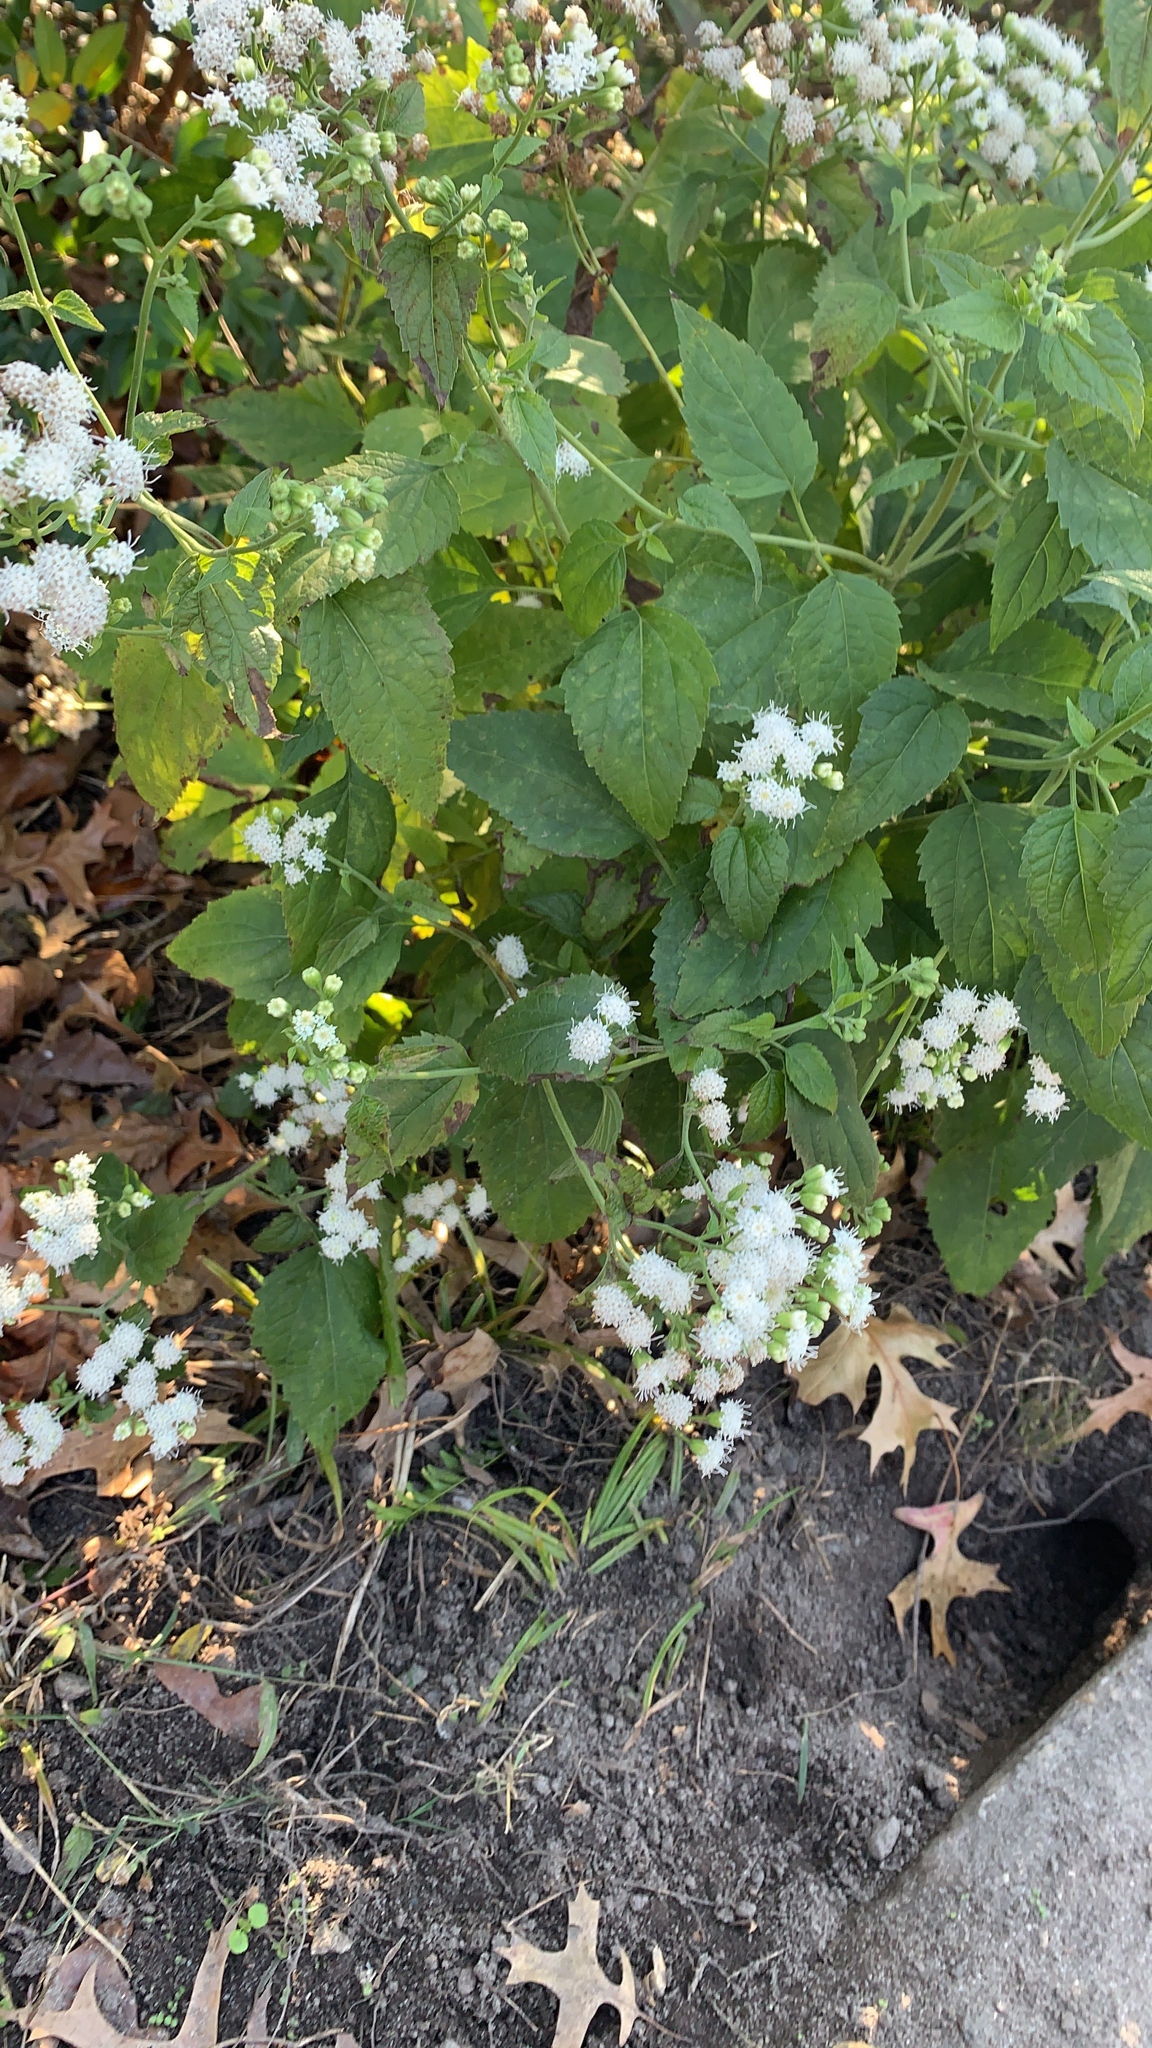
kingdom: Plantae
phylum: Tracheophyta
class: Magnoliopsida
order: Asterales
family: Asteraceae
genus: Ageratina
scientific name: Ageratina altissima
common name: White snakeroot
